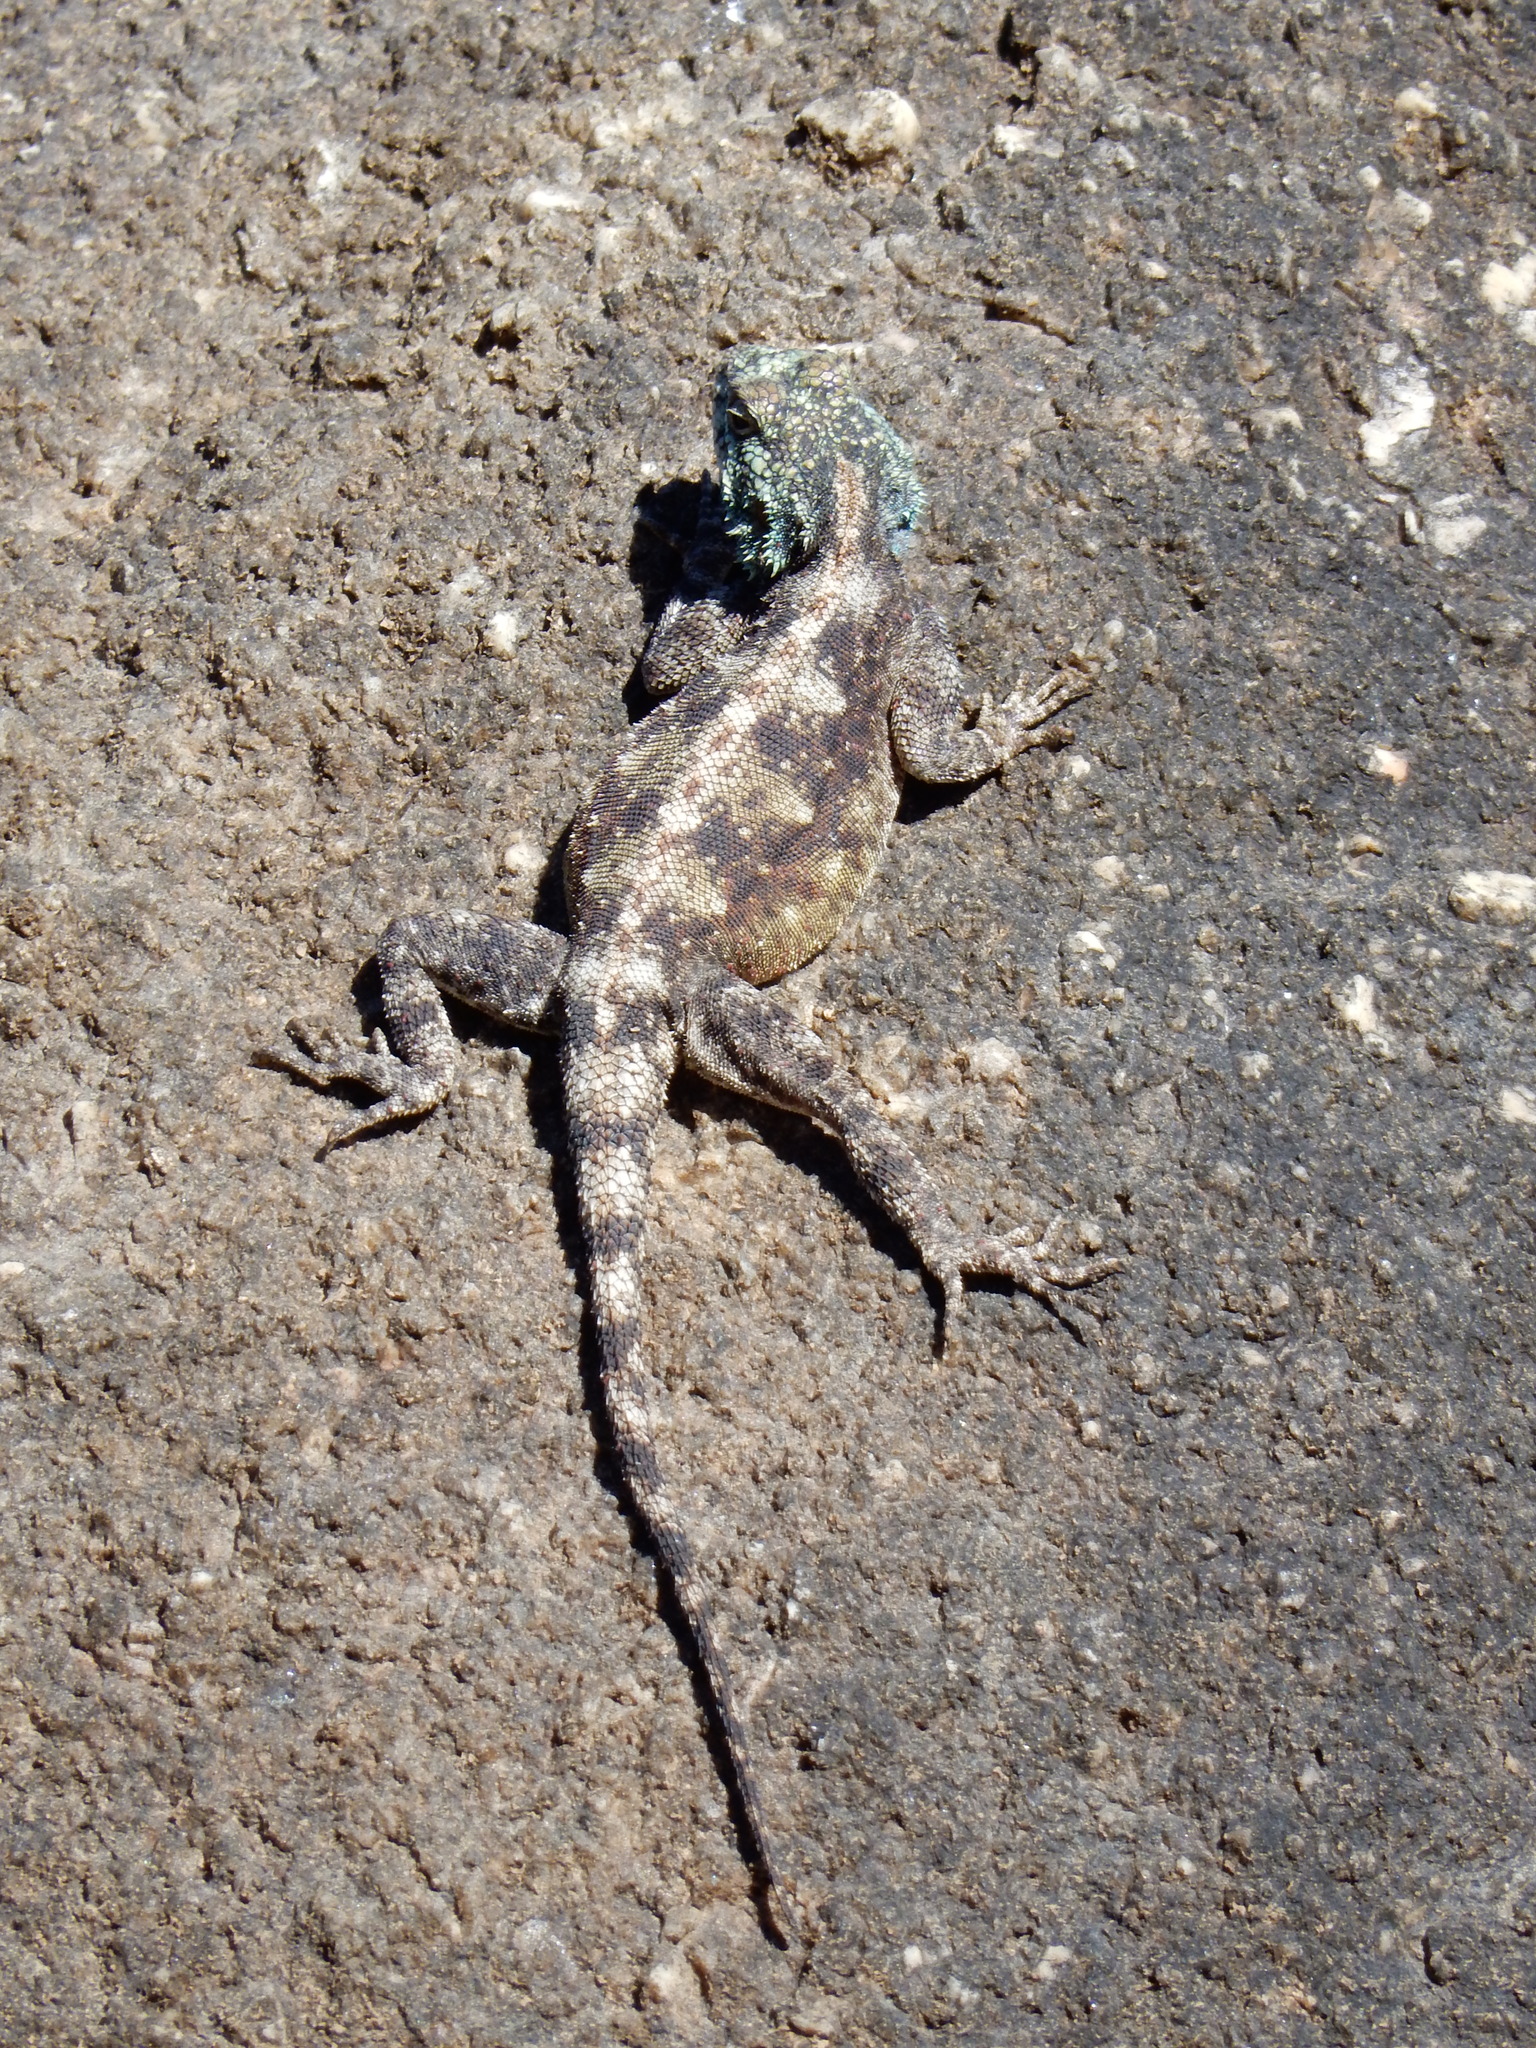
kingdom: Animalia
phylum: Chordata
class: Squamata
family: Agamidae
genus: Agama
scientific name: Agama atra
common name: Southern african rock agama
